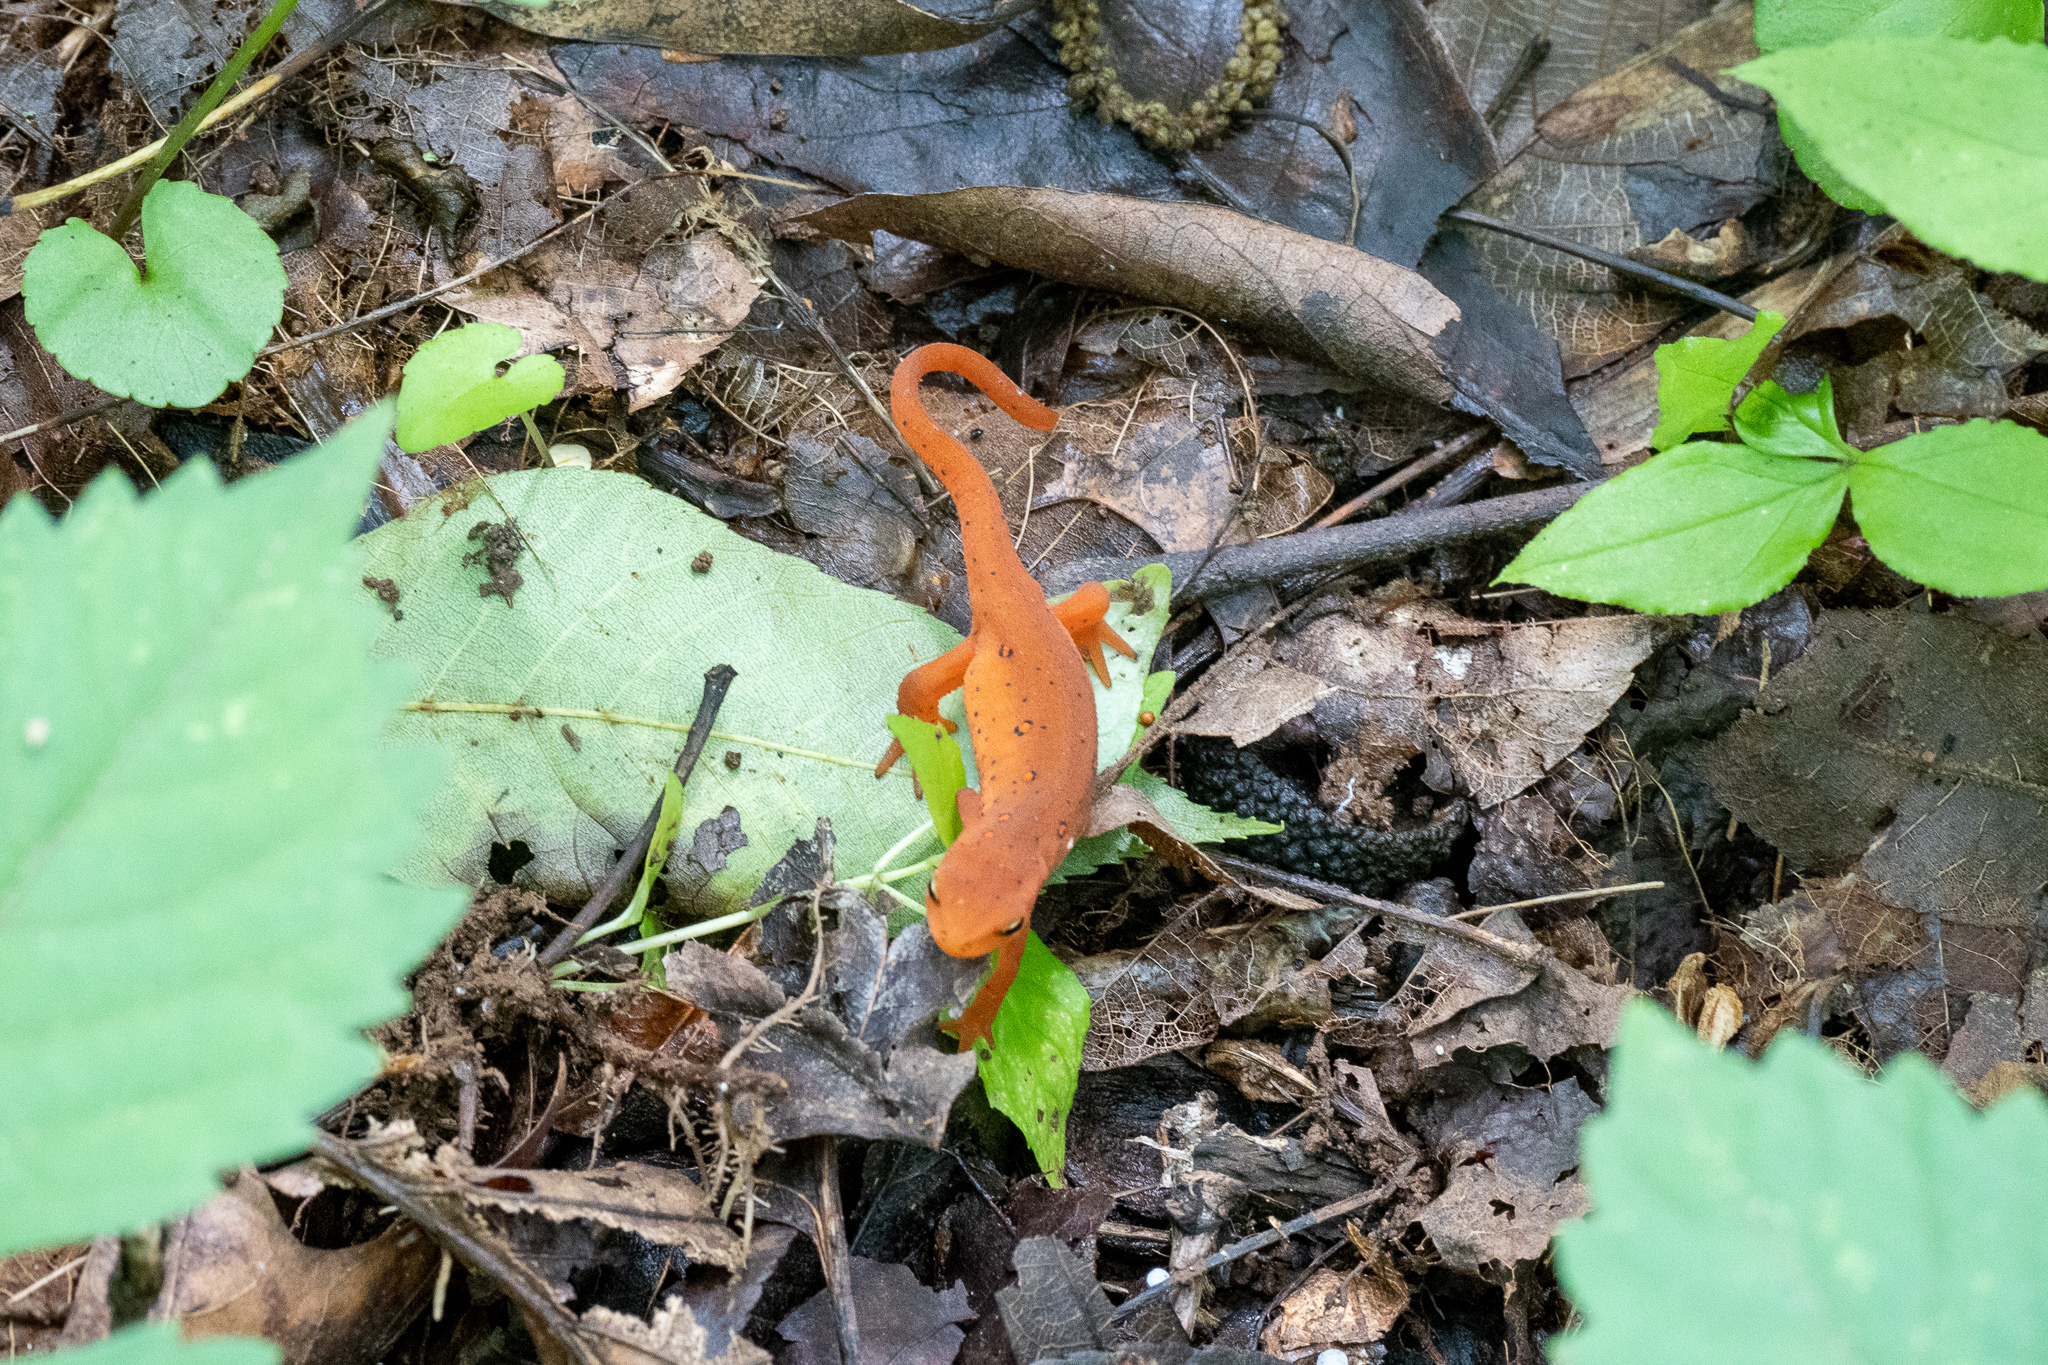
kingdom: Animalia
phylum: Chordata
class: Amphibia
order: Caudata
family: Salamandridae
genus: Notophthalmus
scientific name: Notophthalmus viridescens
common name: Eastern newt
